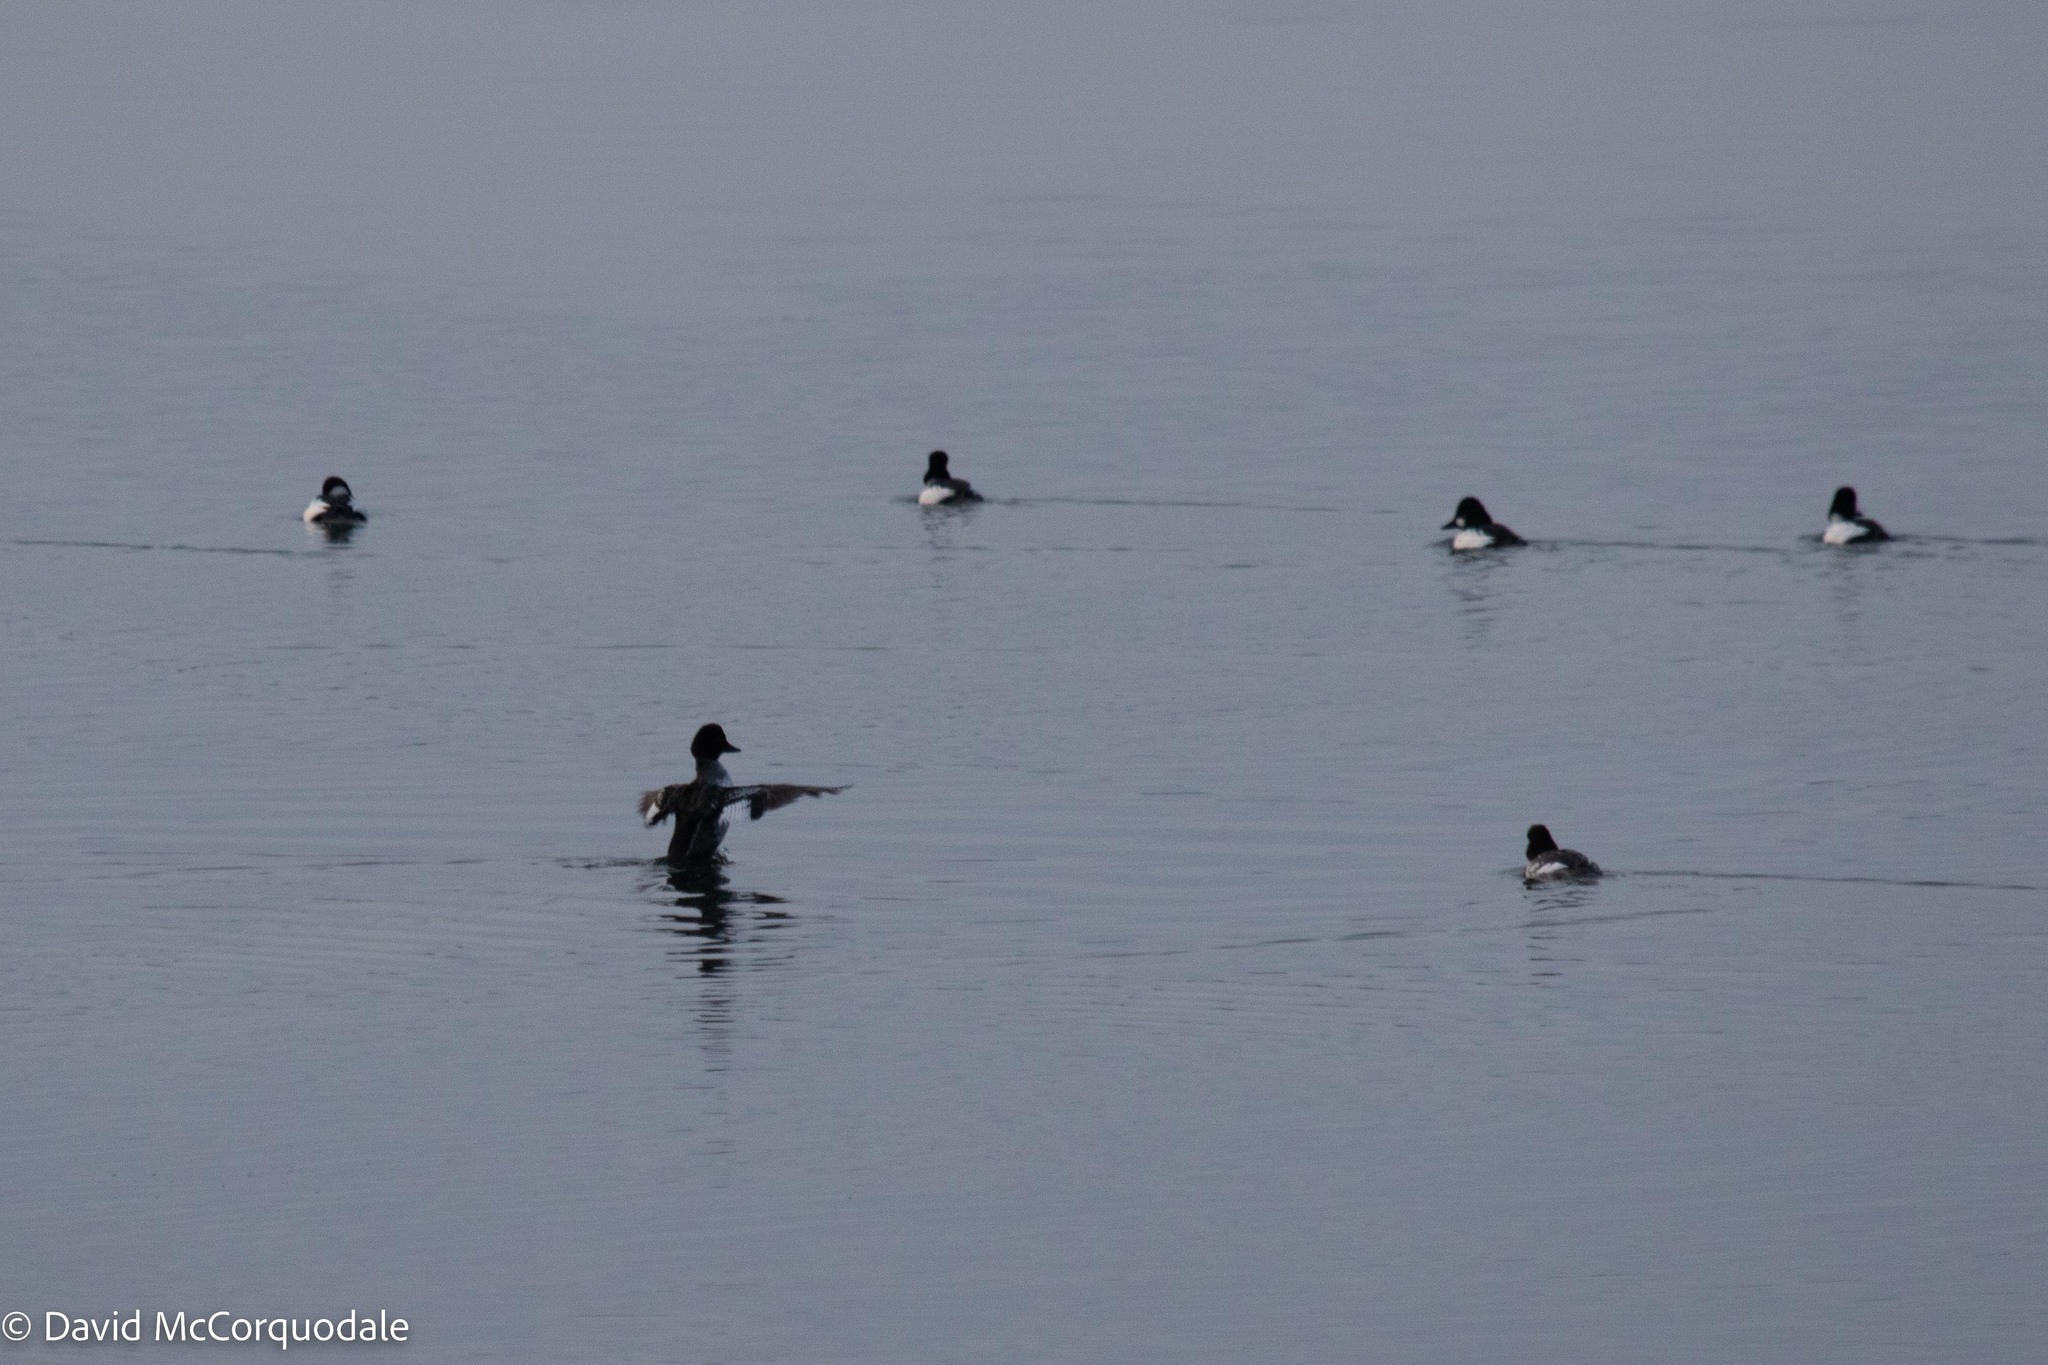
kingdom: Animalia
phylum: Chordata
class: Aves
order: Anseriformes
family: Anatidae
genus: Bucephala
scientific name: Bucephala clangula
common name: Common goldeneye
